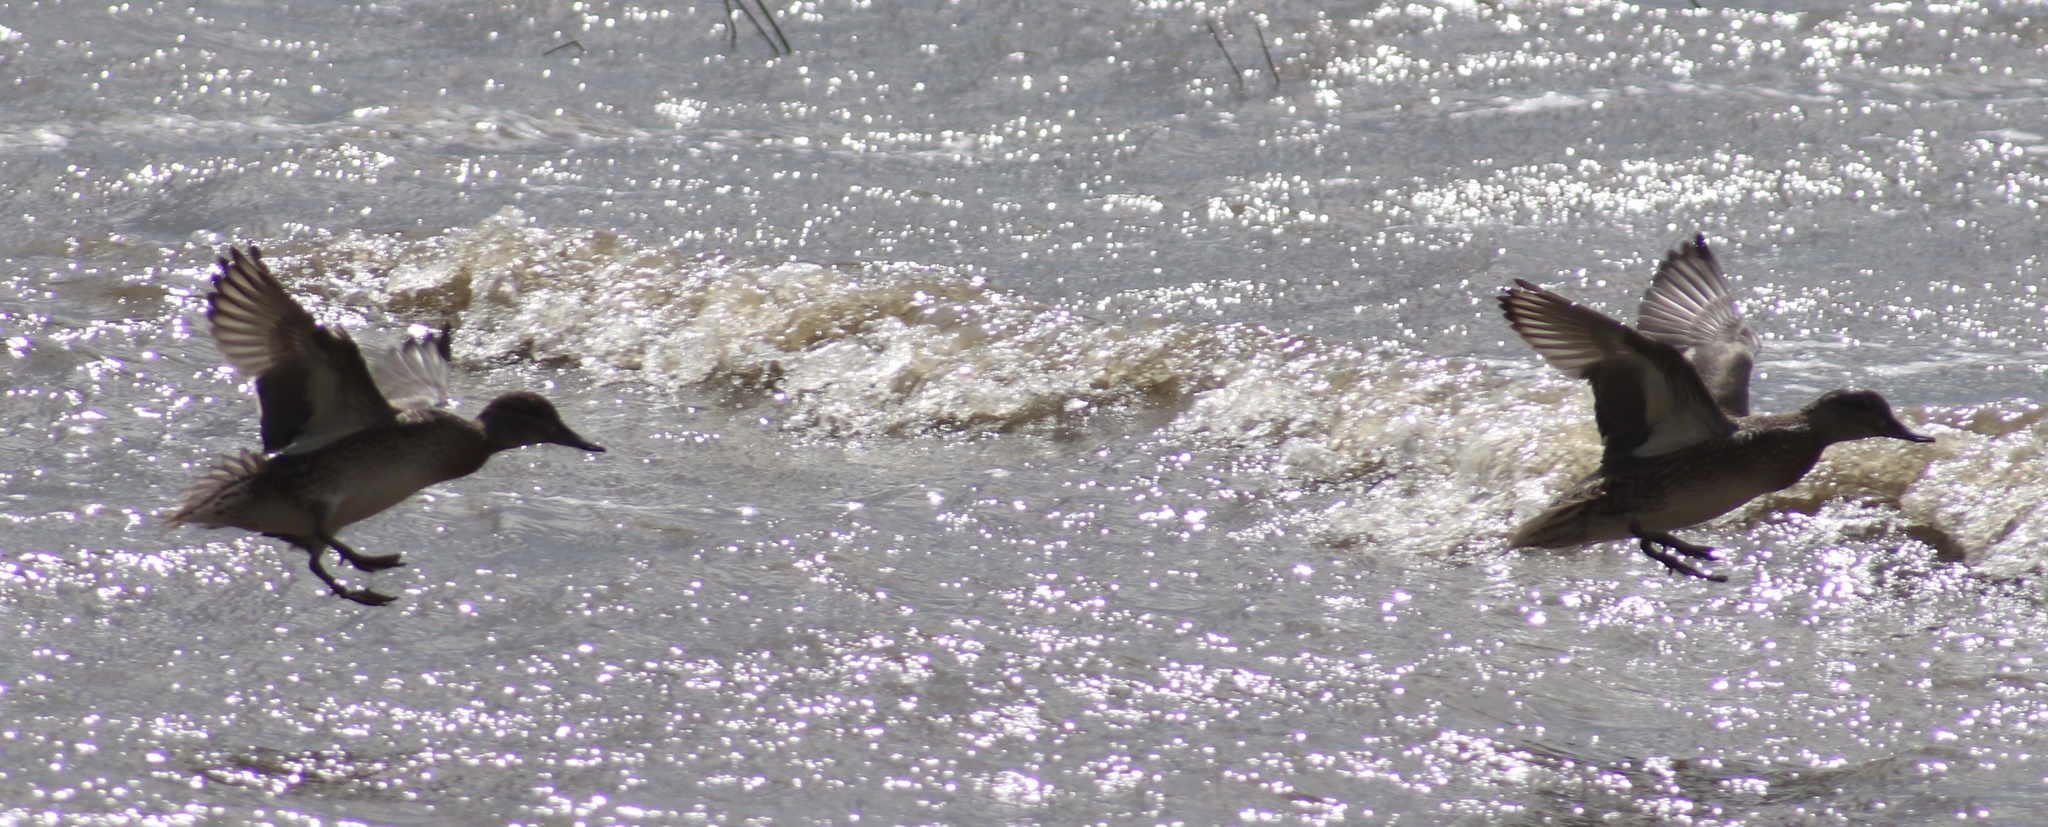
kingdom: Animalia
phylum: Chordata
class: Aves
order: Anseriformes
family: Anatidae
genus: Spatula
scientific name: Spatula discors
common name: Blue-winged teal
